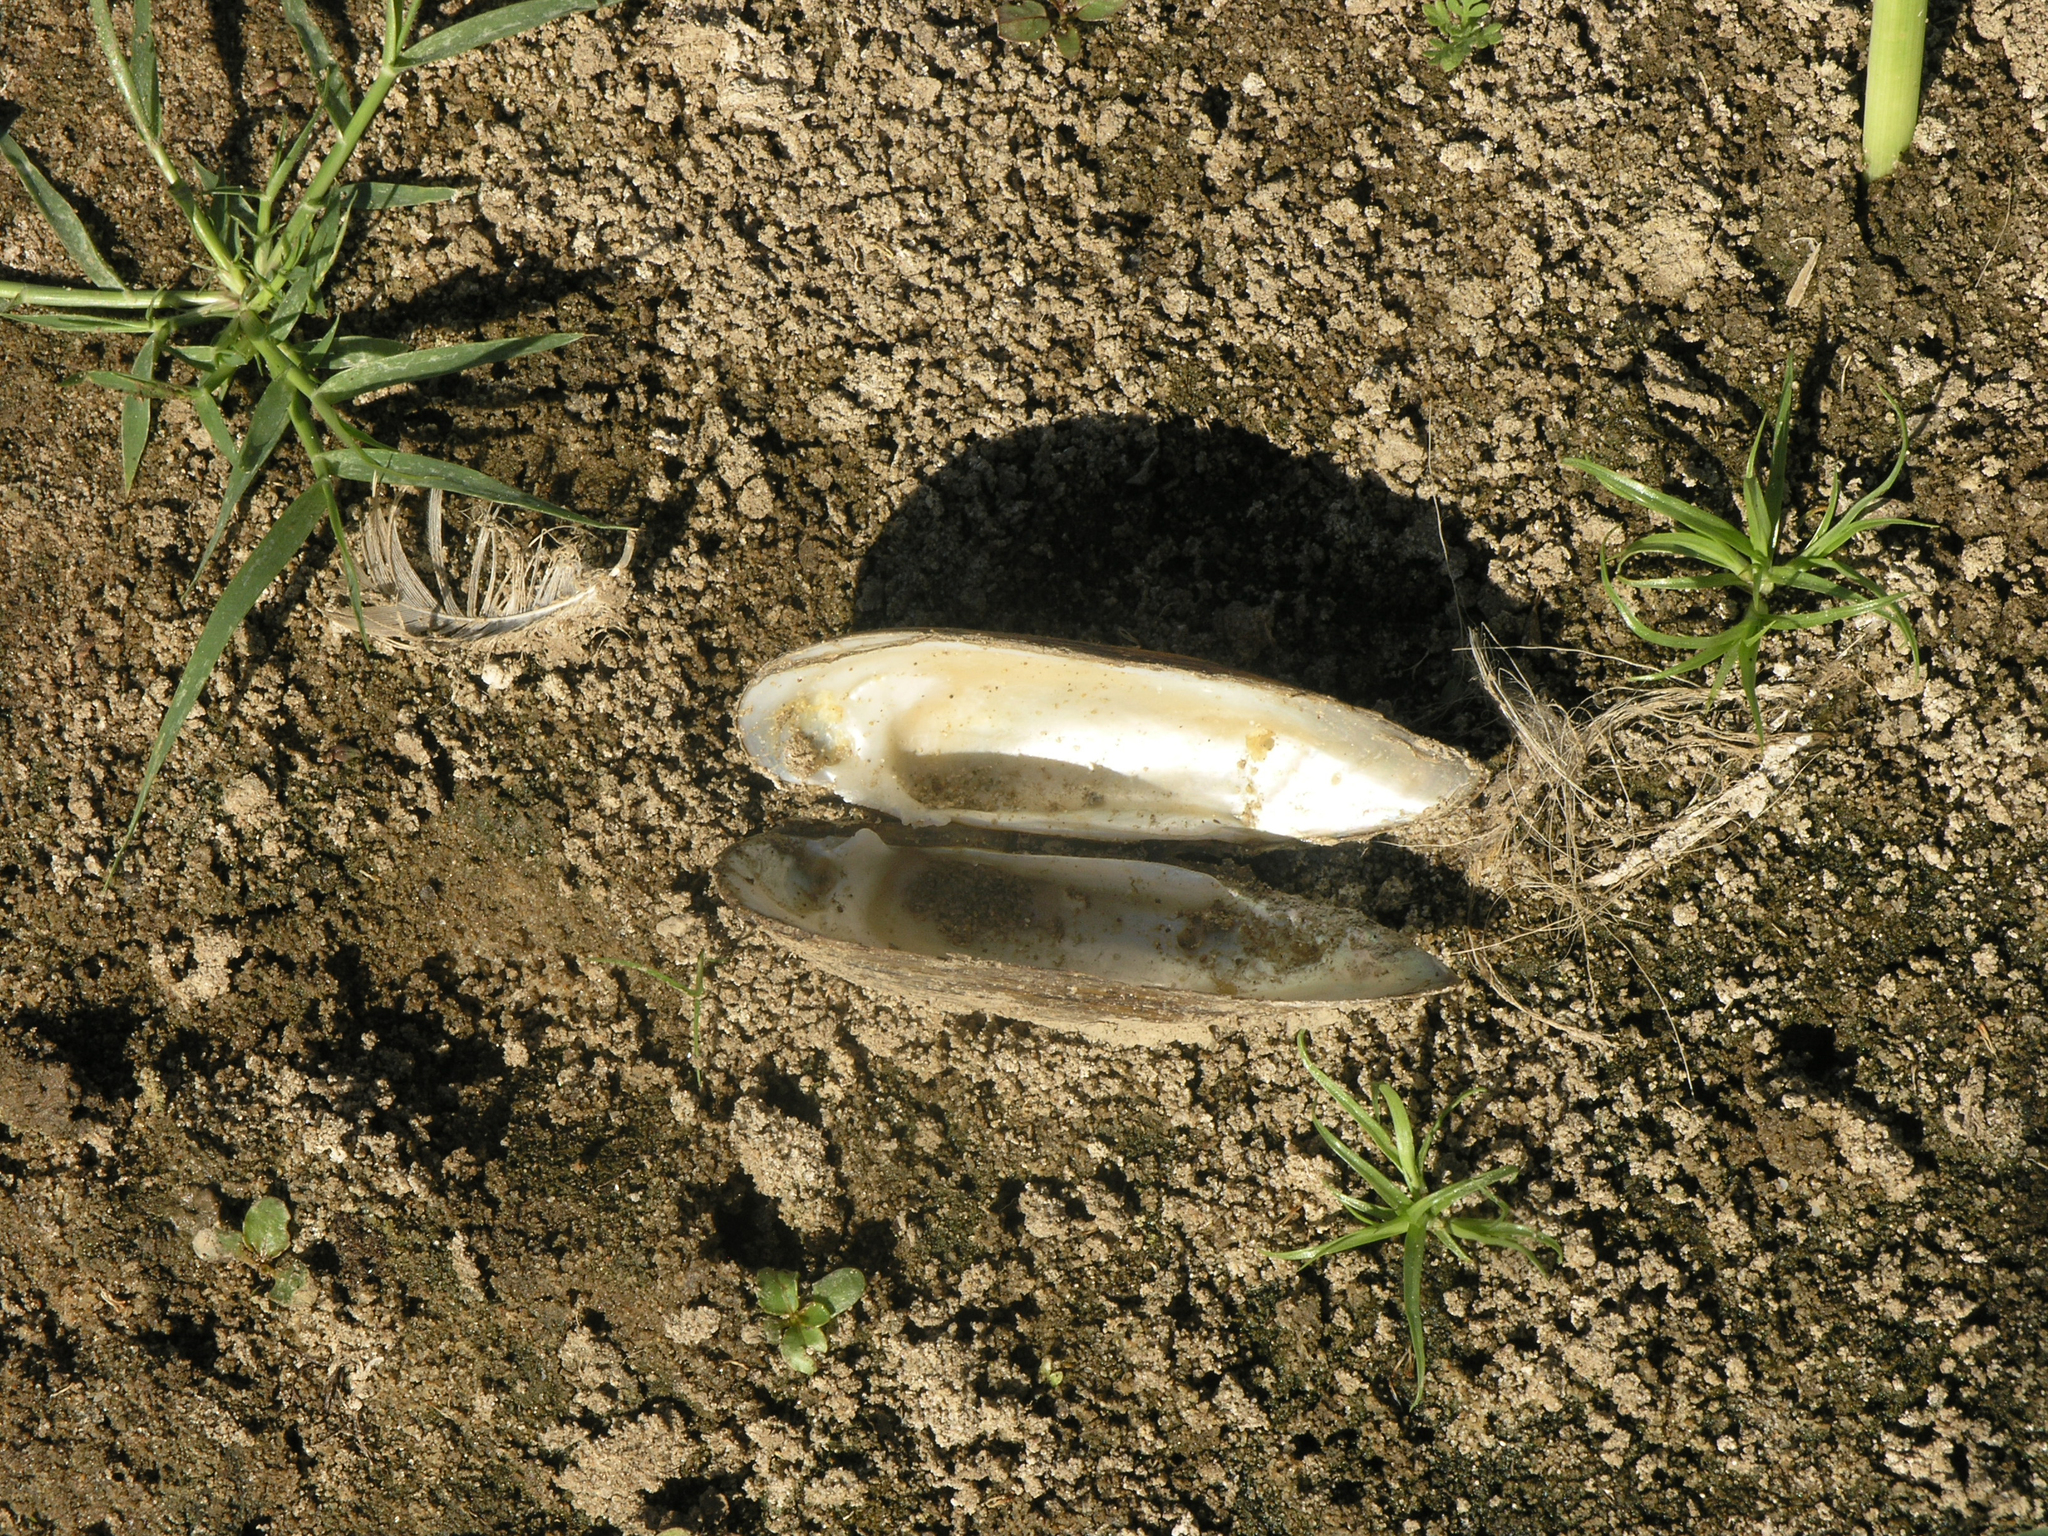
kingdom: Animalia
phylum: Mollusca
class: Bivalvia
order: Unionida
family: Unionidae
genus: Unio
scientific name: Unio tumidus
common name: Swollen river mussel
